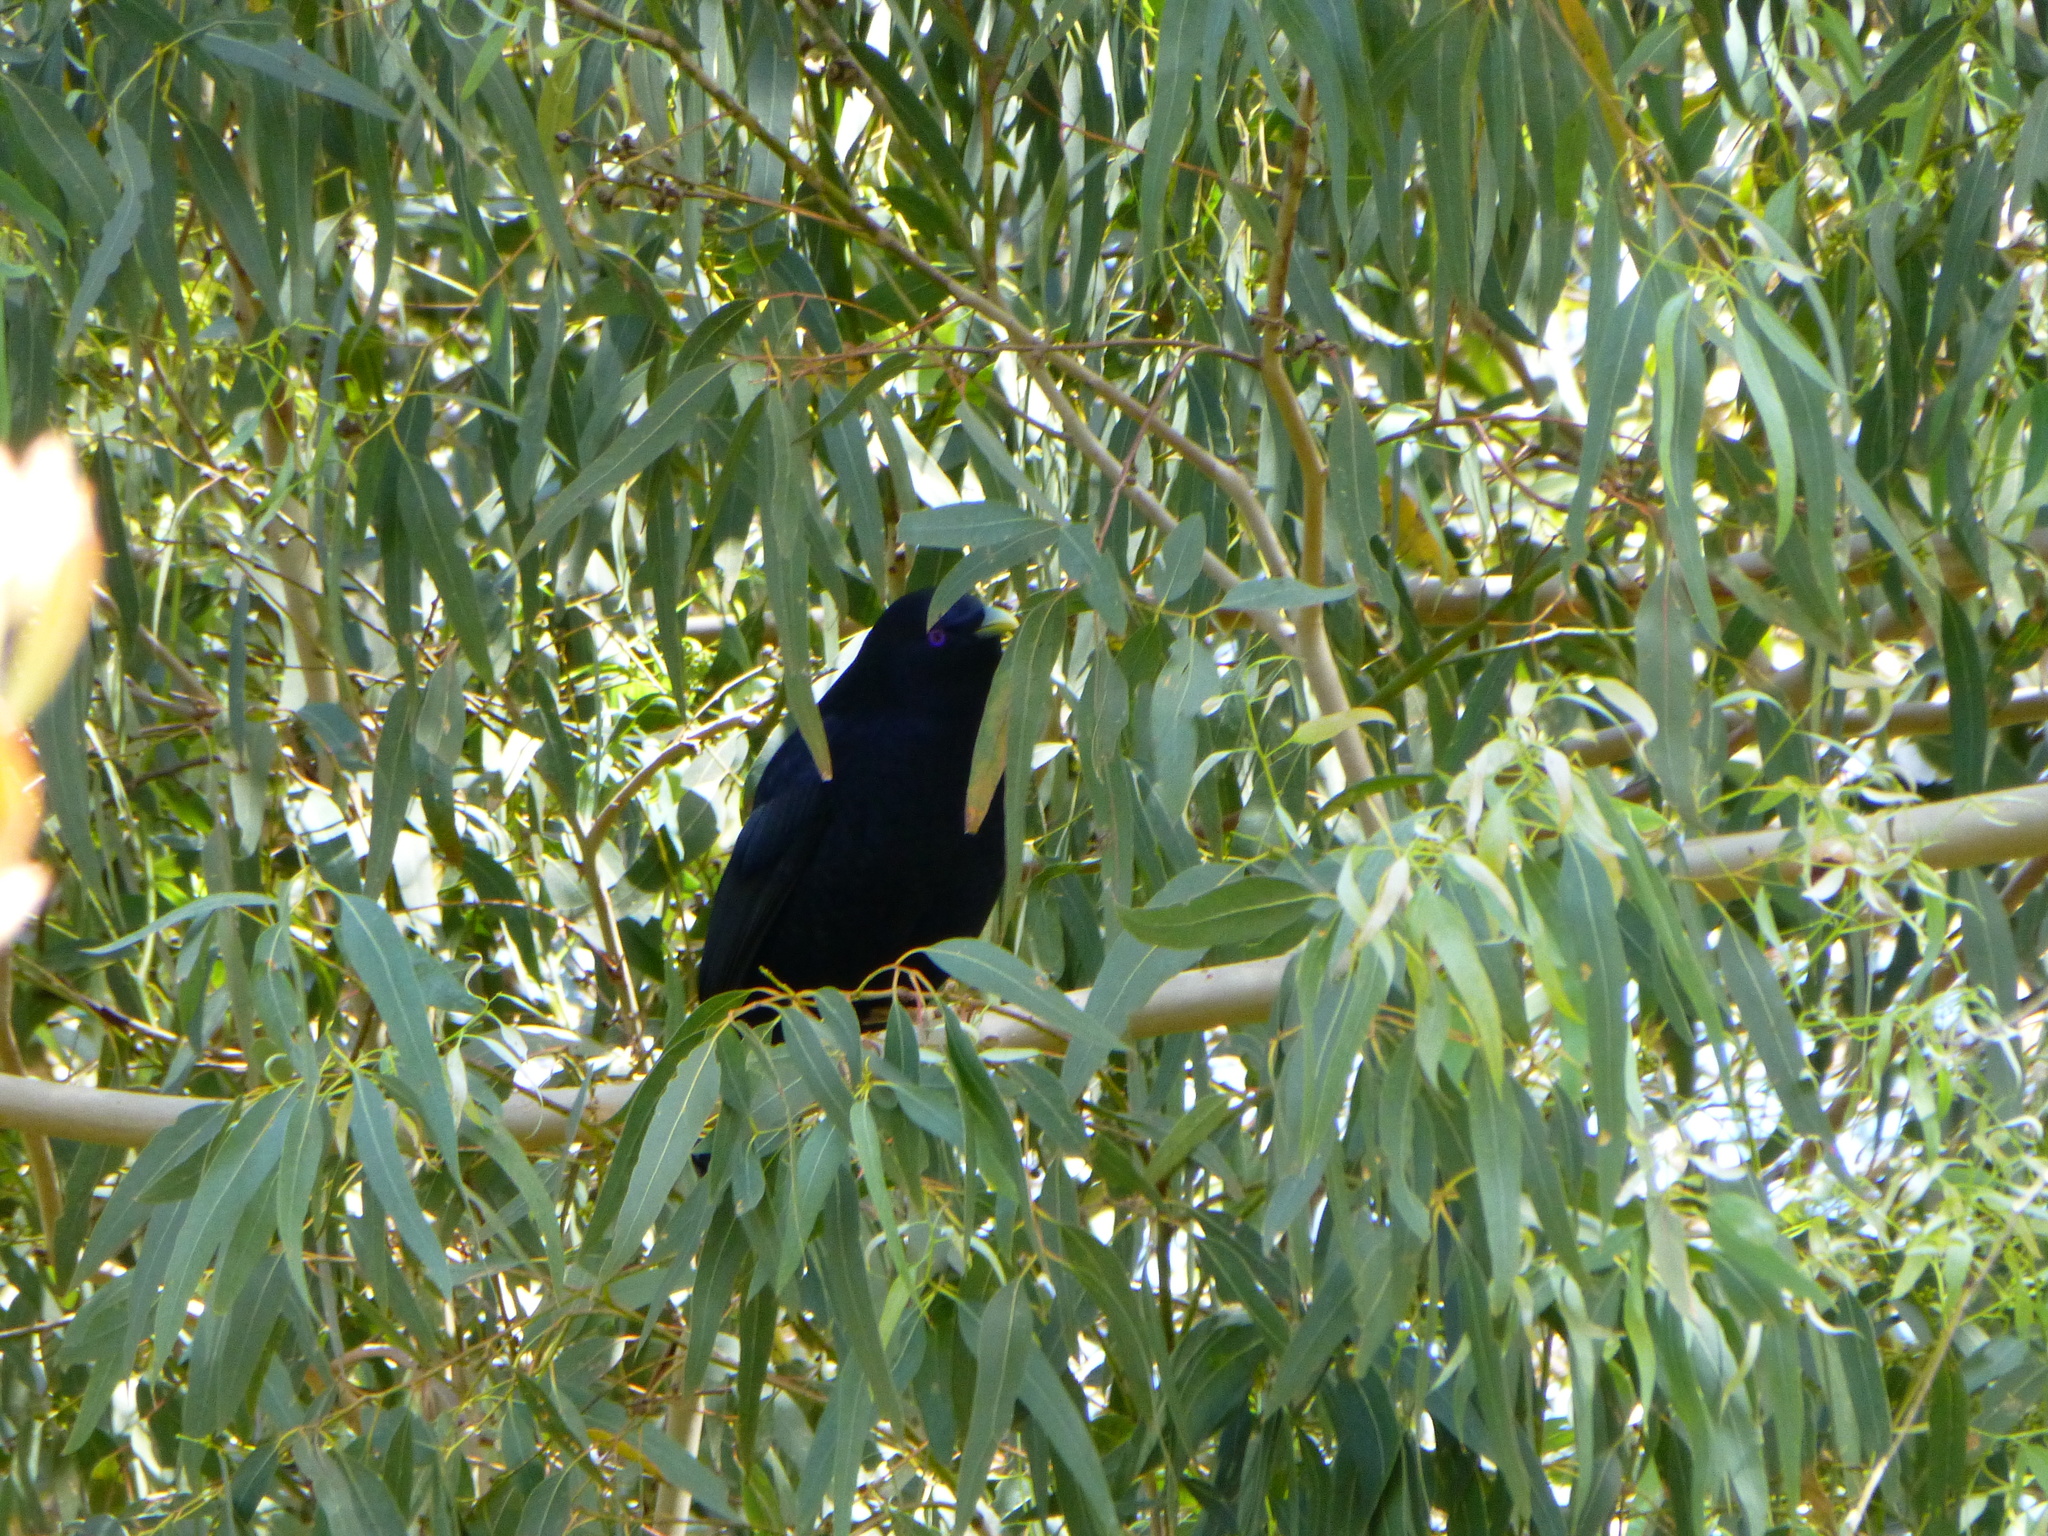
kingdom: Animalia
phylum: Chordata
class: Aves
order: Passeriformes
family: Ptilonorhynchidae
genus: Ptilonorhynchus
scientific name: Ptilonorhynchus violaceus
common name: Satin bowerbird
